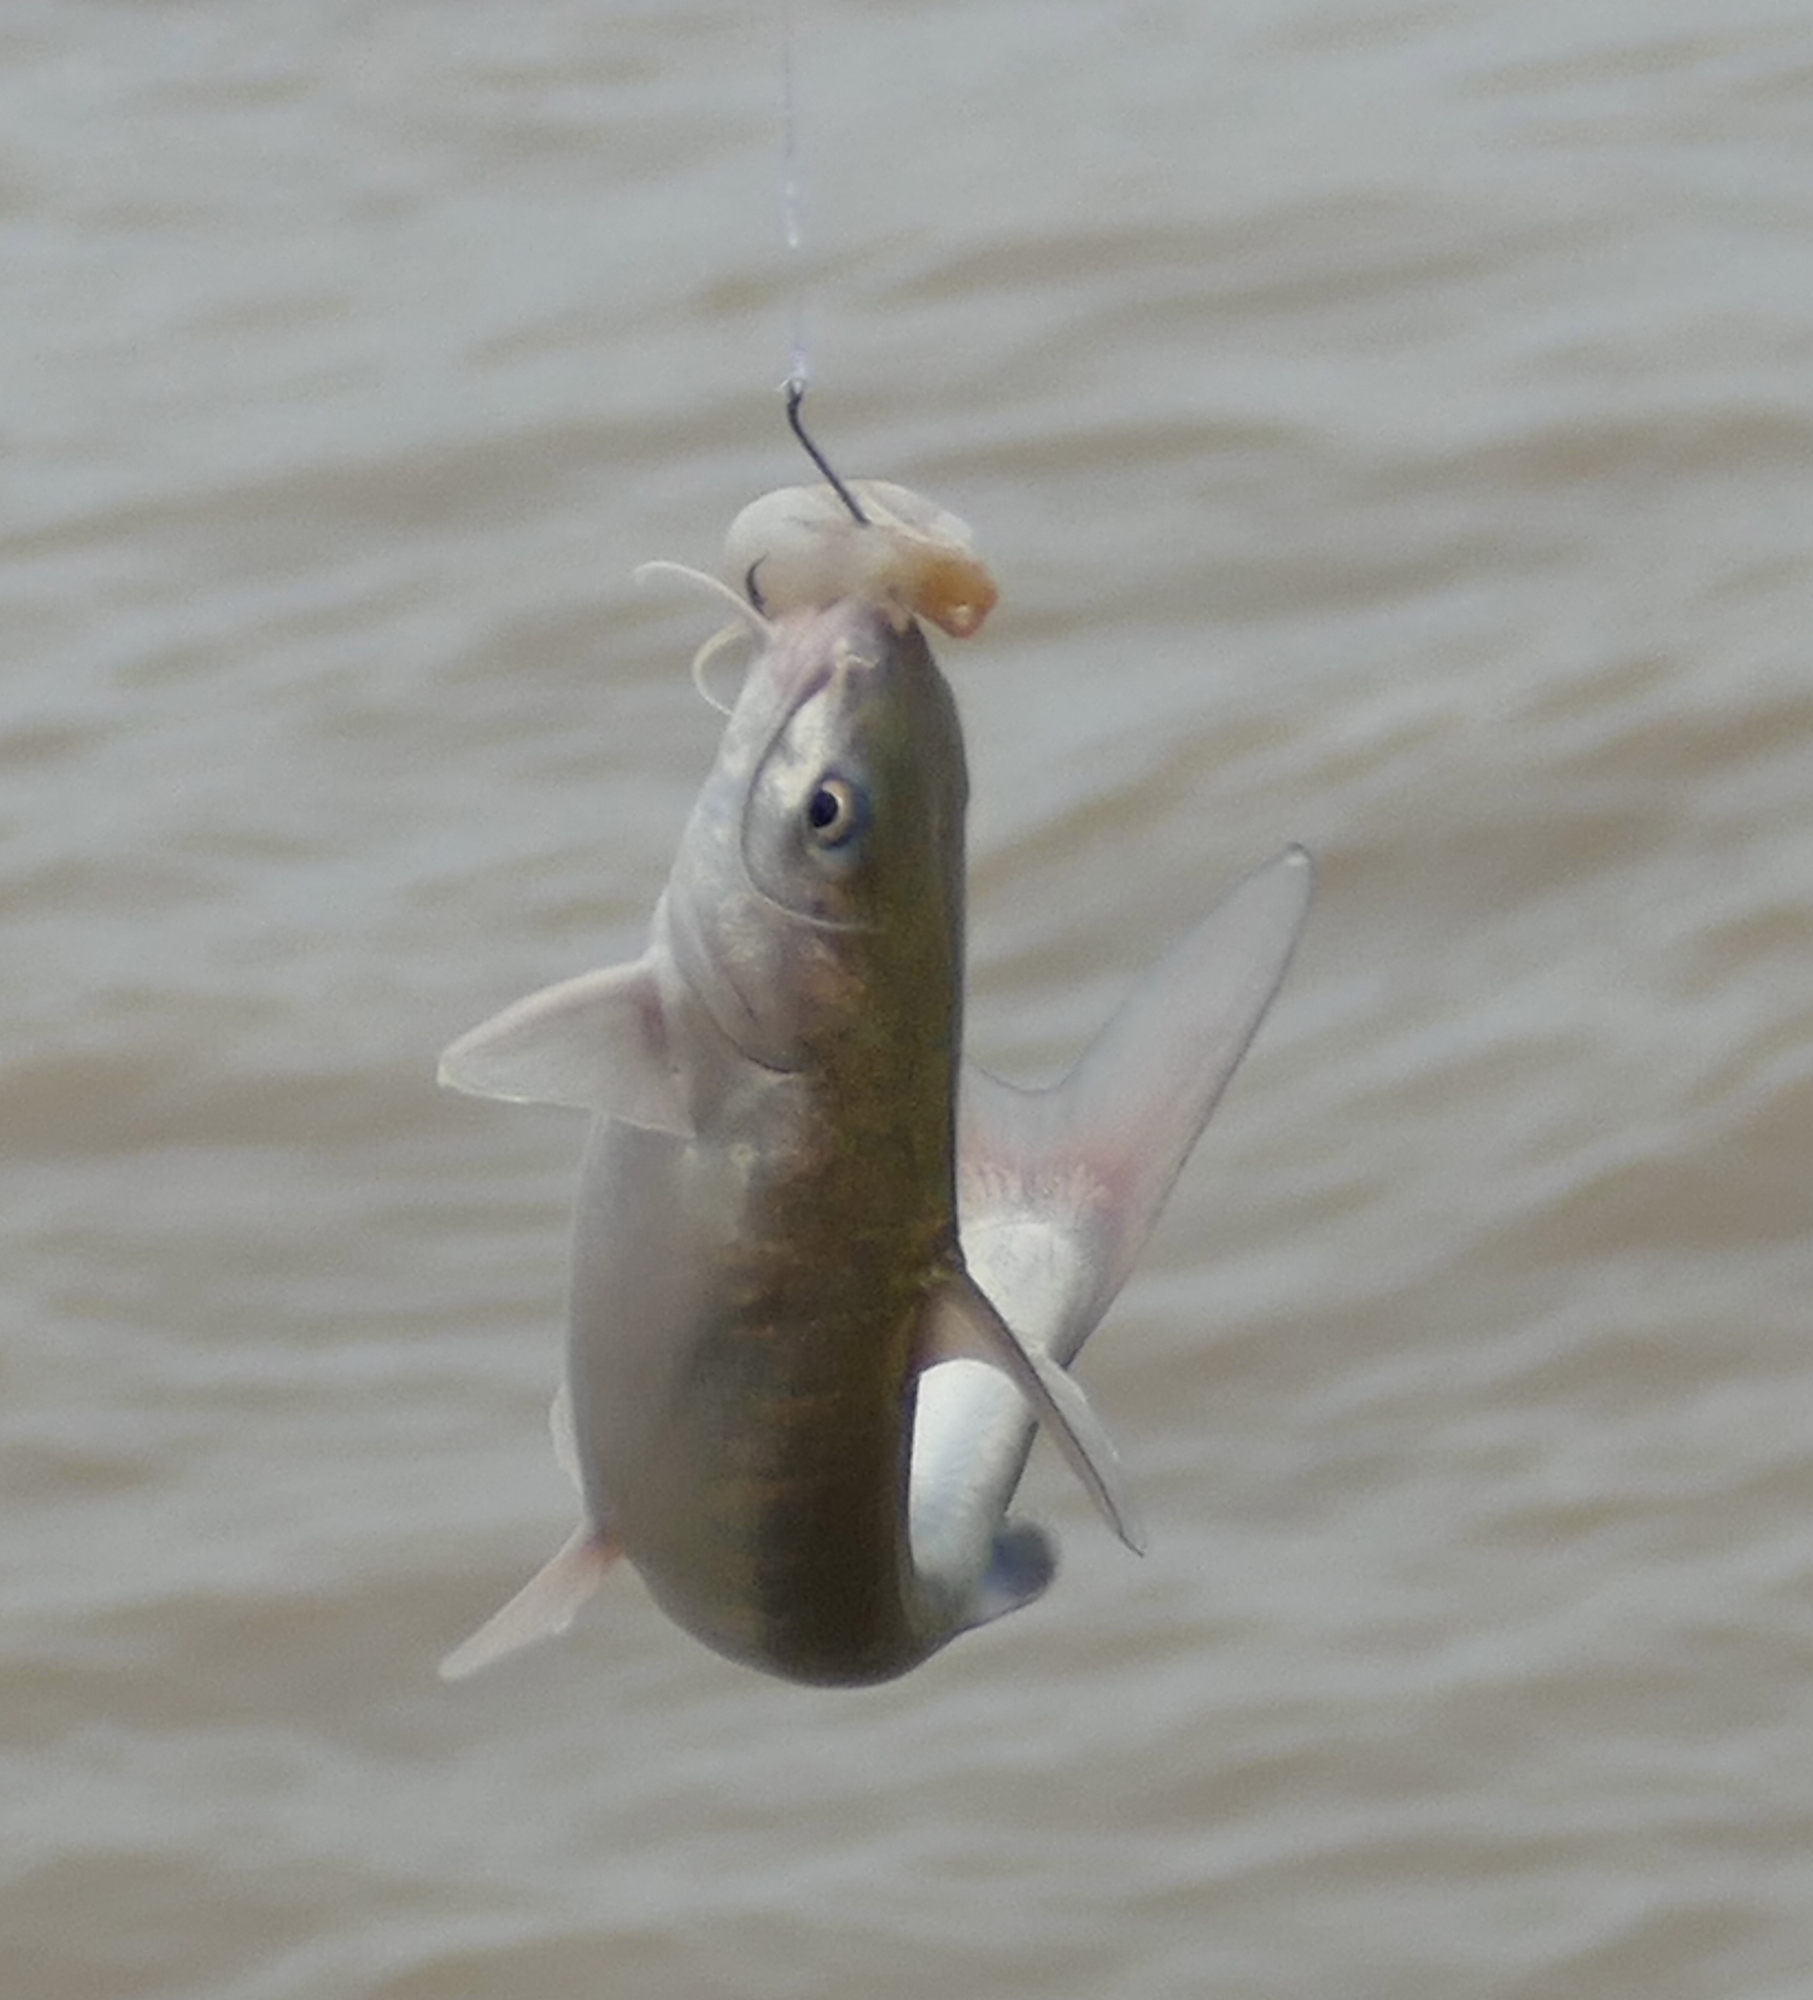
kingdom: Animalia
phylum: Chordata
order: Siluriformes
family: Ariidae
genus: Ariopsis
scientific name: Ariopsis felis
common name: Hardhead catfish
